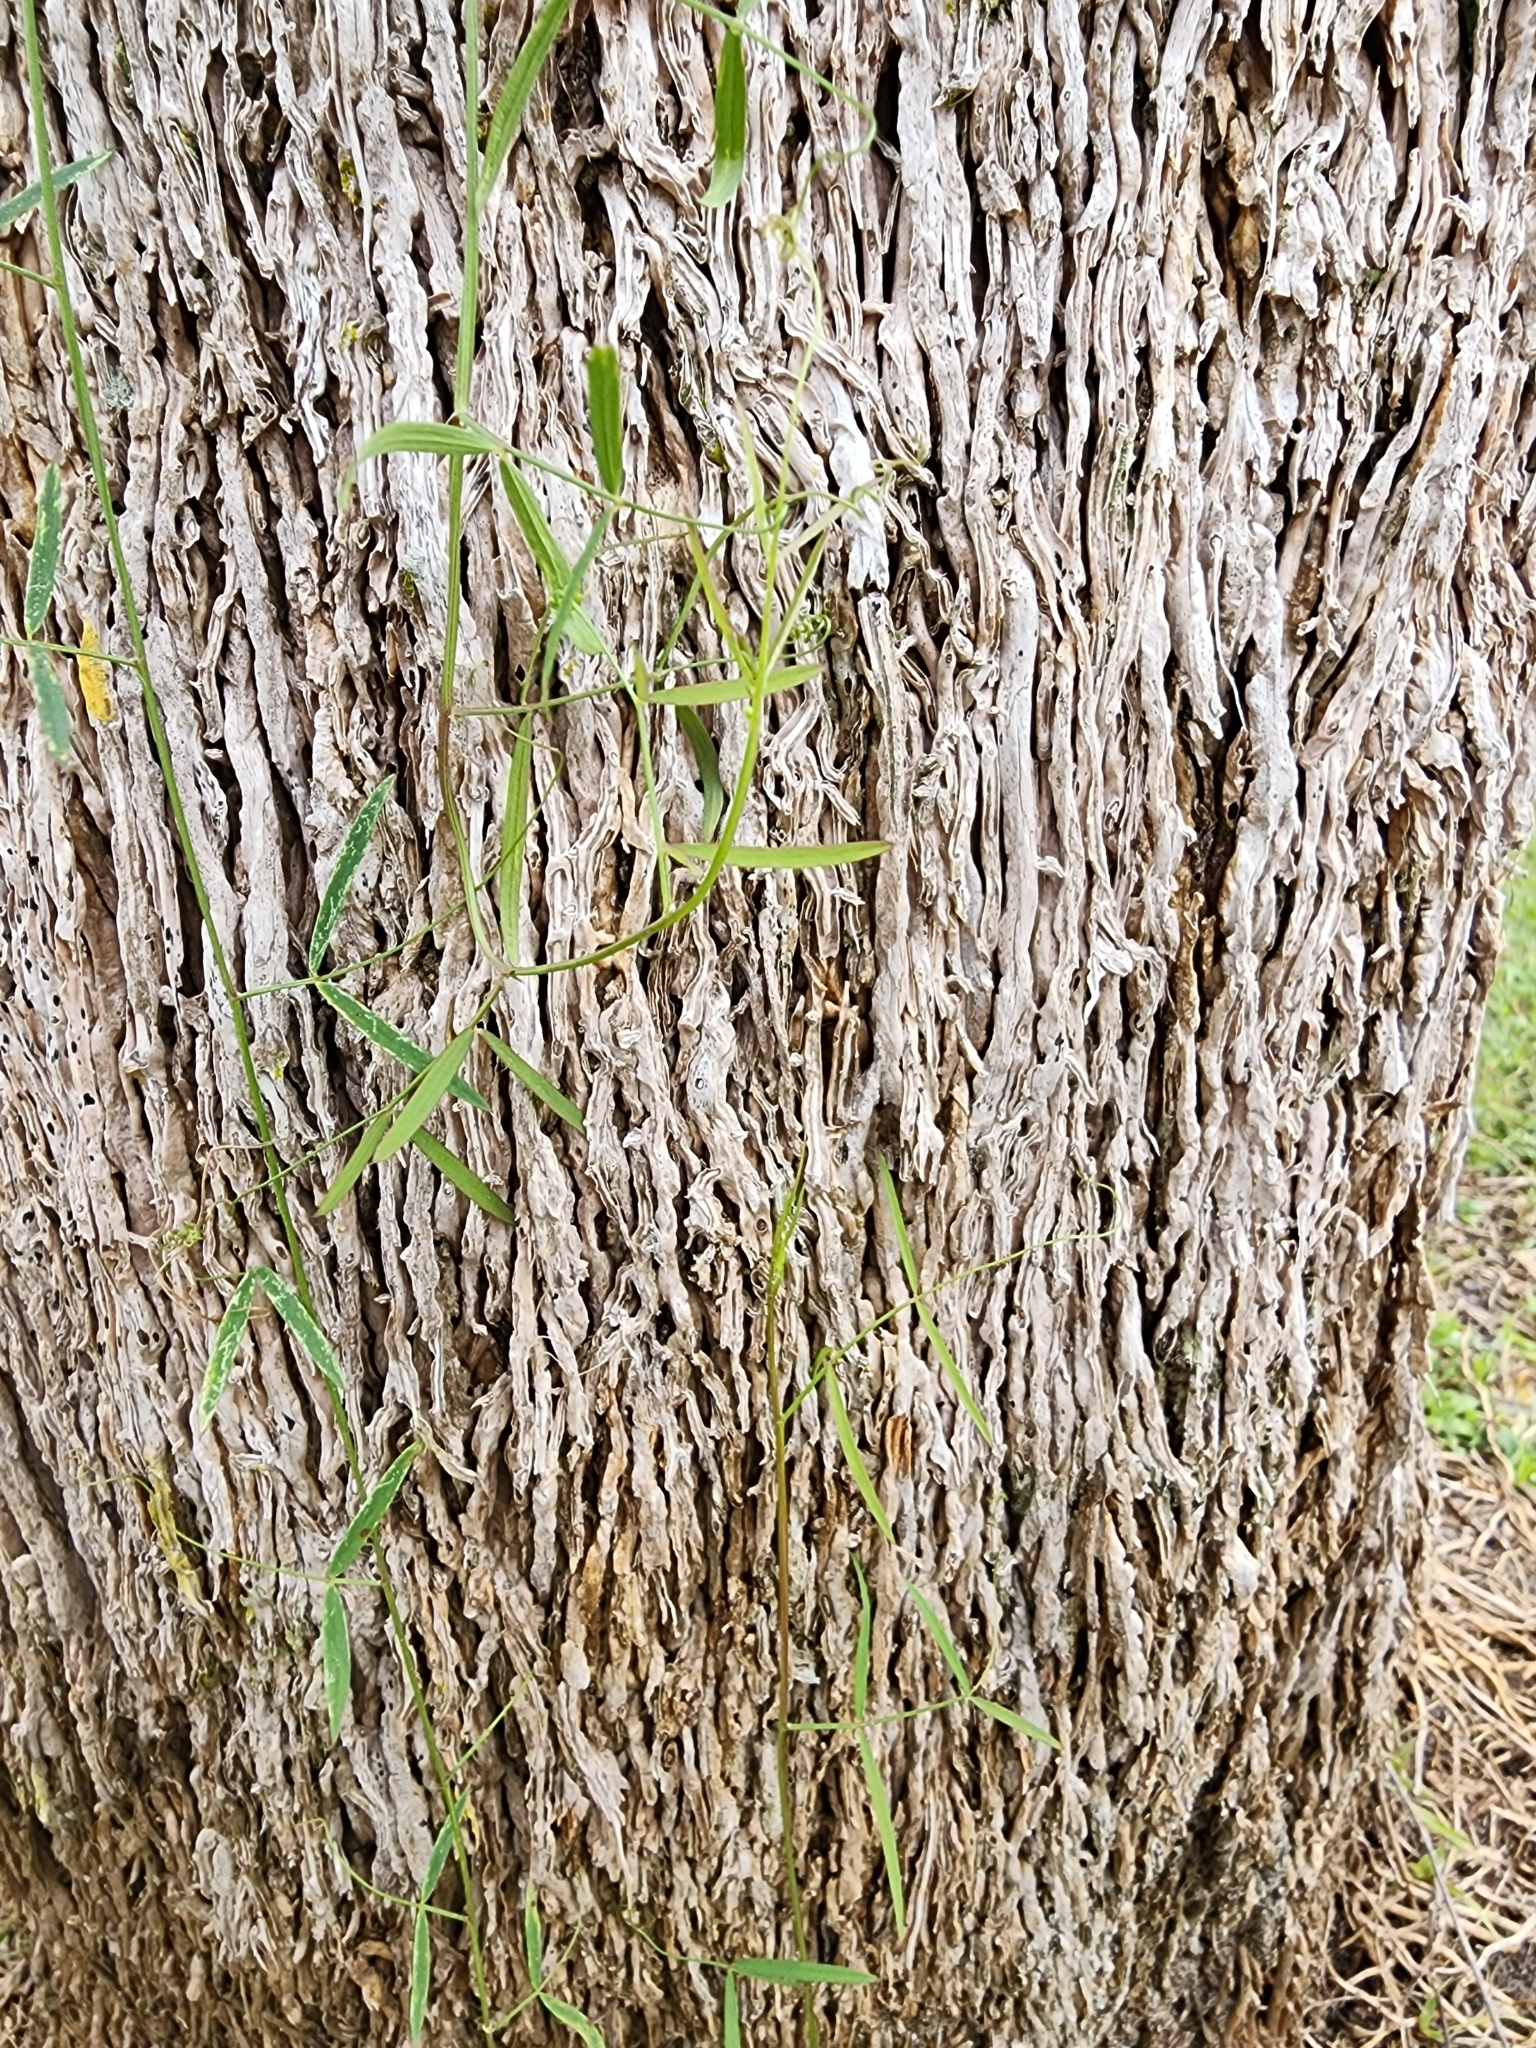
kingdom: Plantae
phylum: Tracheophyta
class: Magnoliopsida
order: Fabales
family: Fabaceae
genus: Vicia
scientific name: Vicia acutifolia
